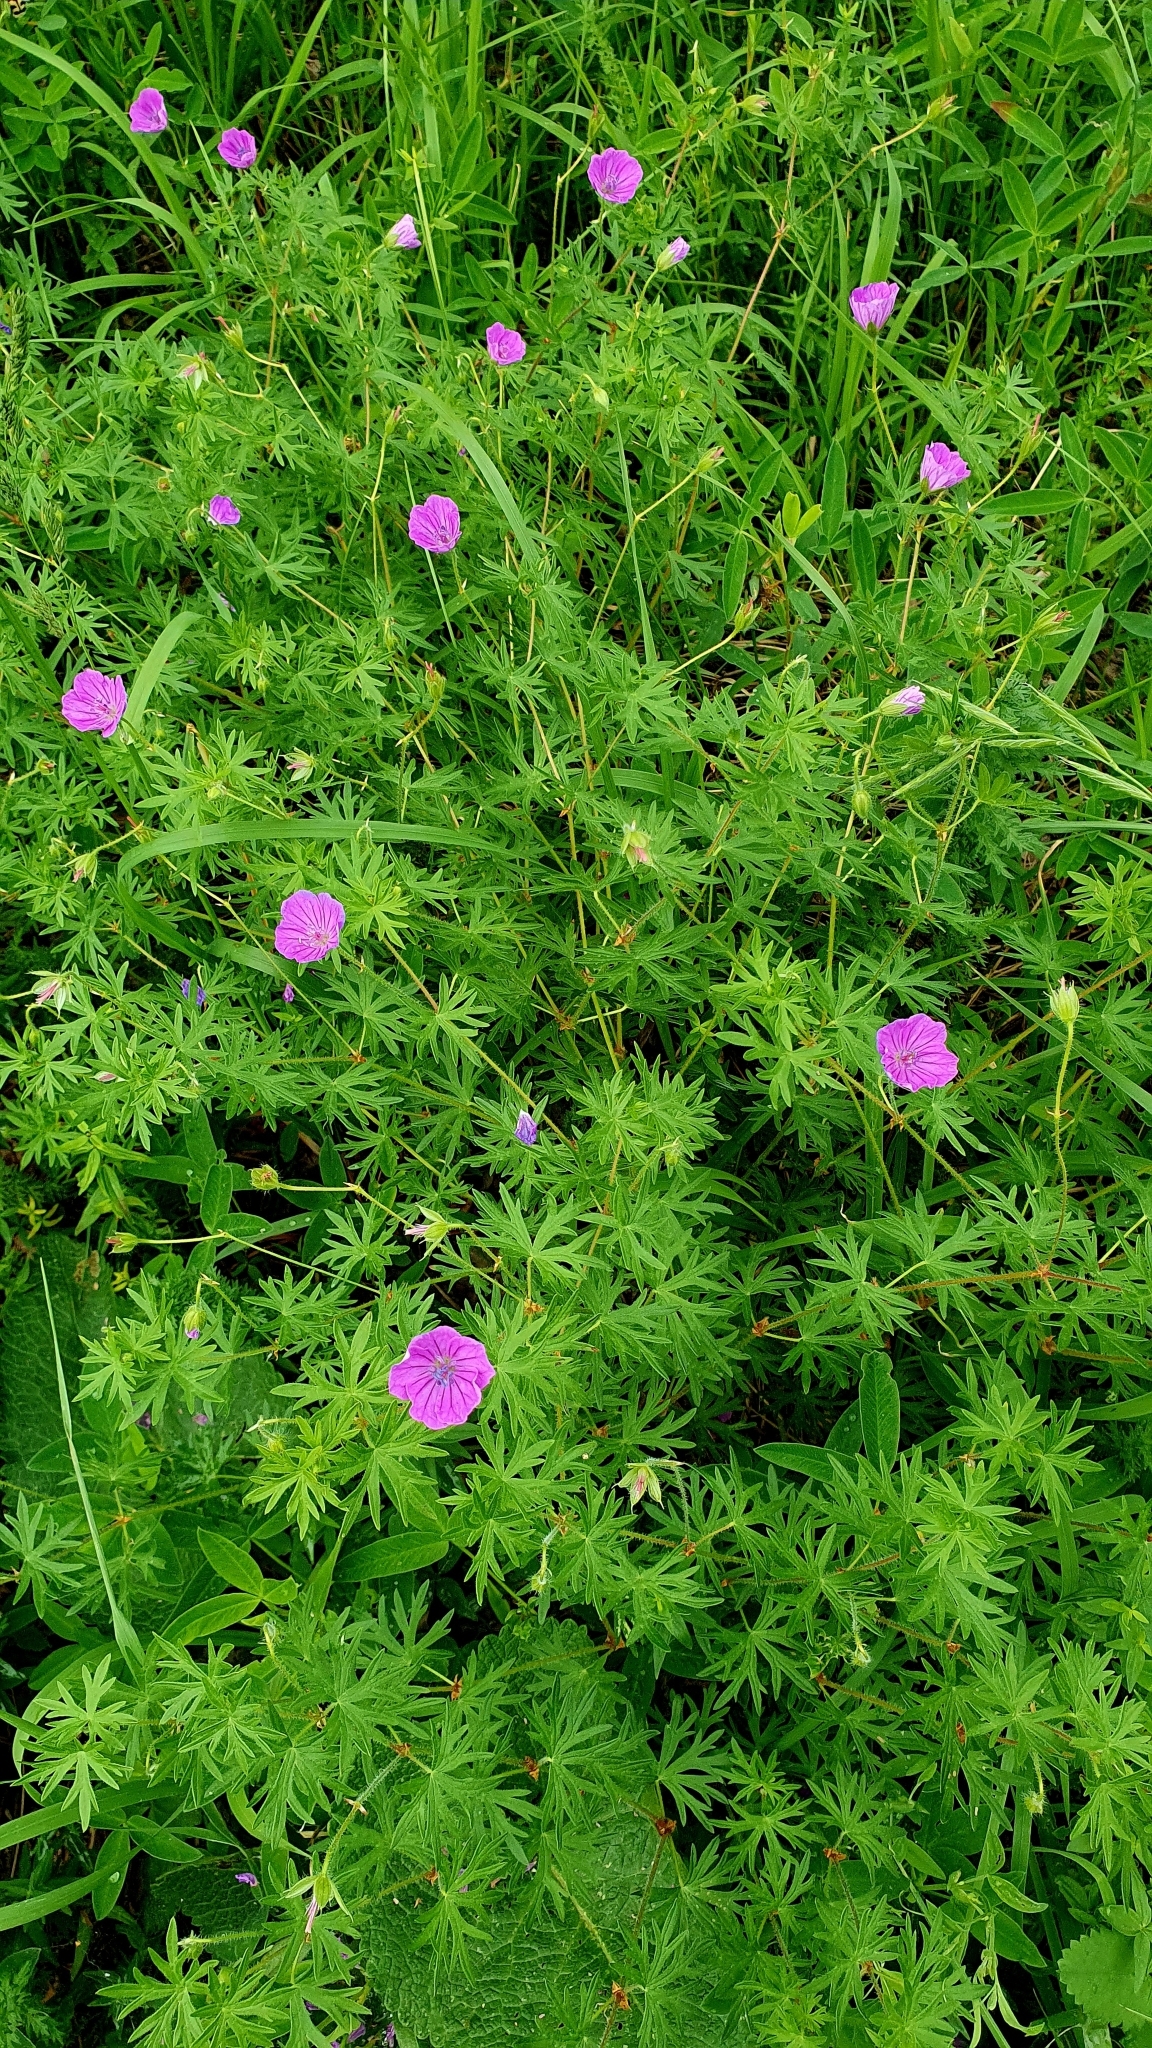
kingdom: Plantae
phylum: Tracheophyta
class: Magnoliopsida
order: Geraniales
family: Geraniaceae
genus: Geranium
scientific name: Geranium sanguineum
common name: Bloody crane's-bill
